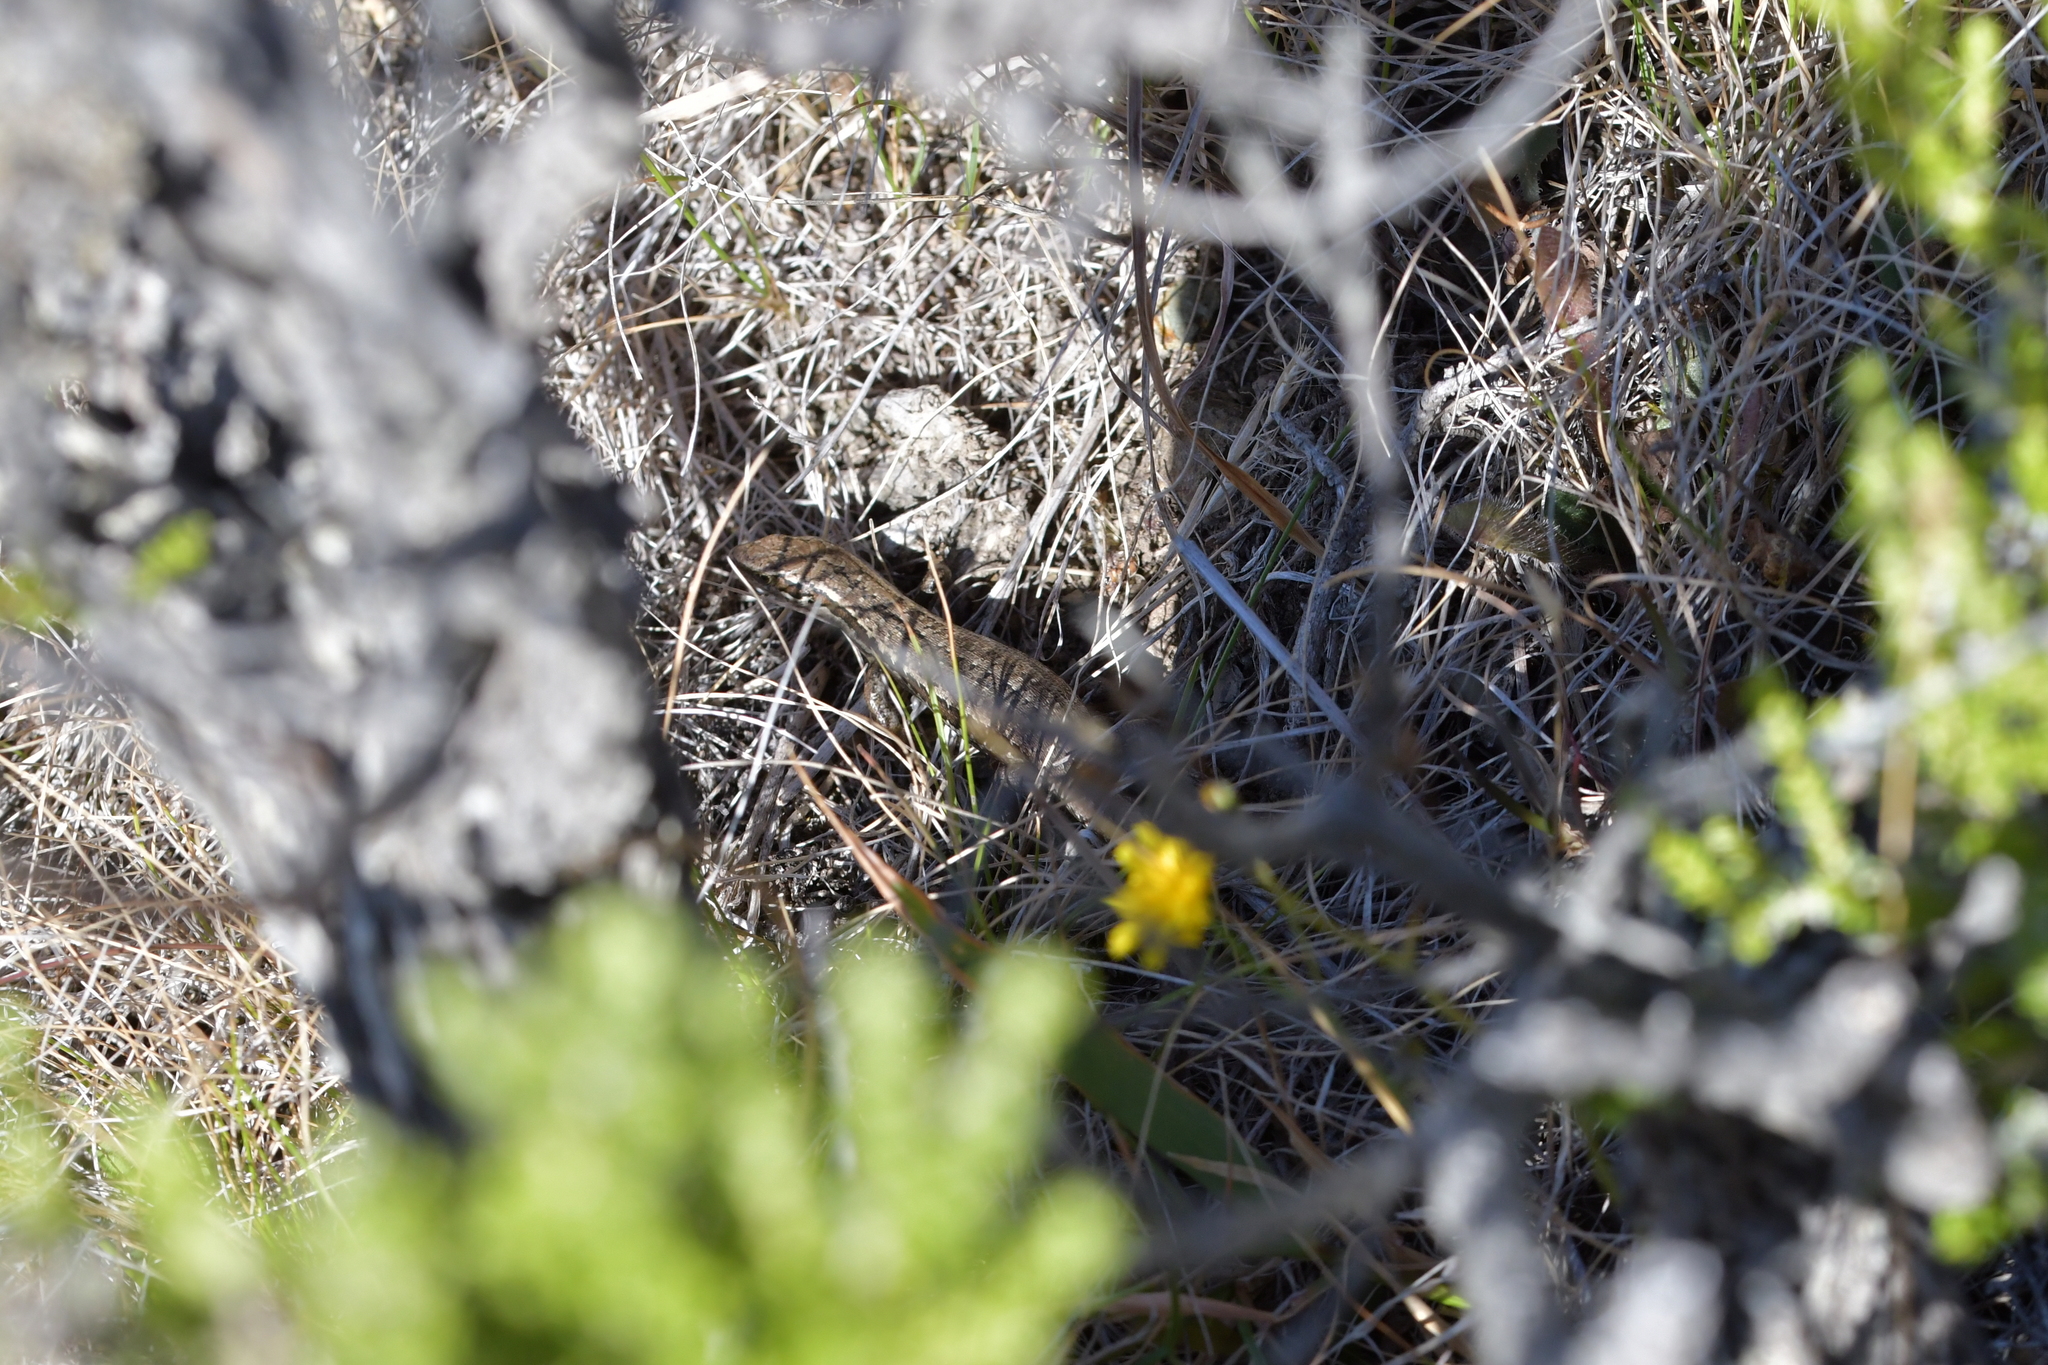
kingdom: Animalia
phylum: Chordata
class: Squamata
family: Scincidae
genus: Oligosoma
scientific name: Oligosoma polychroma
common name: Common new zealand skink
